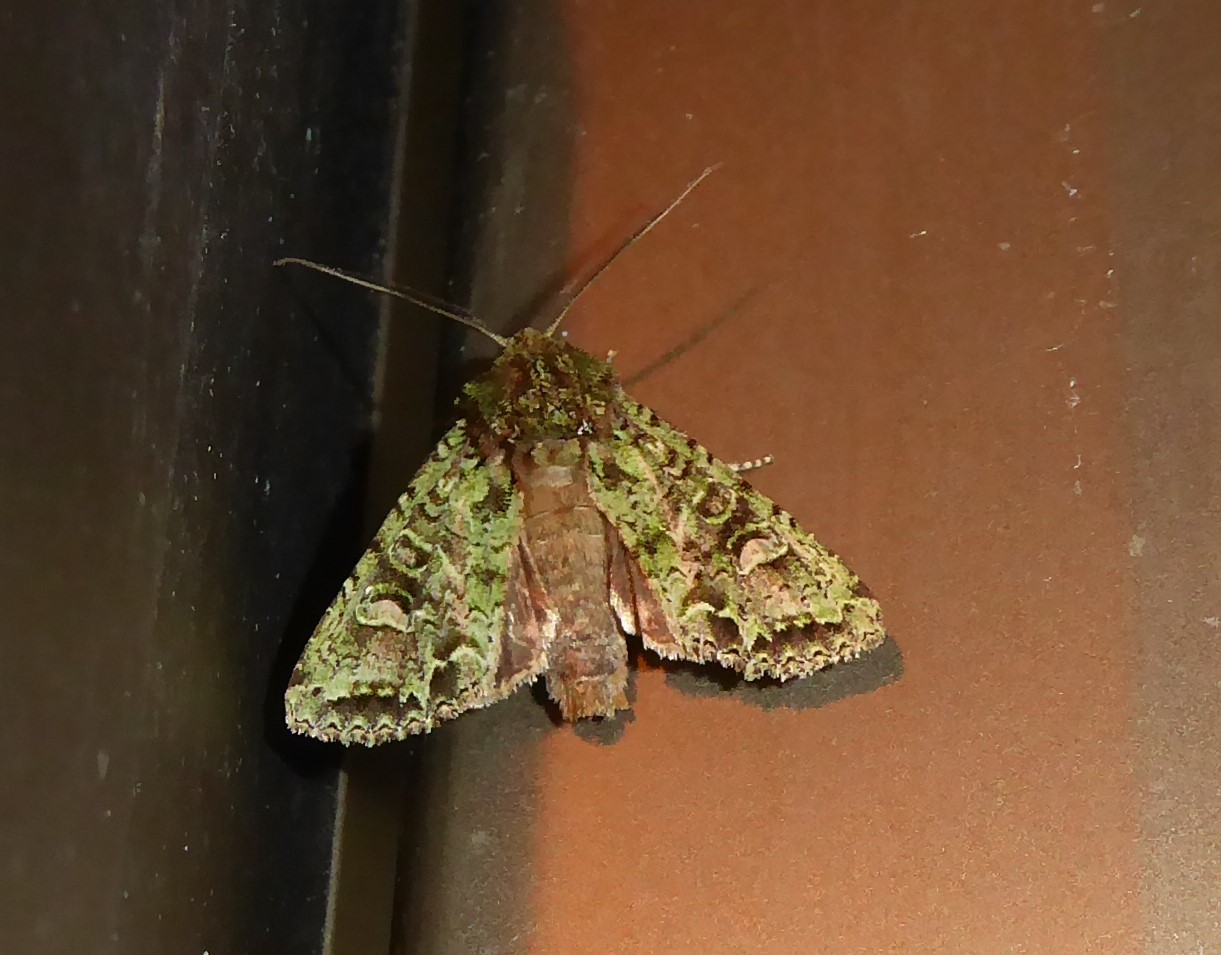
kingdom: Animalia
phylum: Arthropoda
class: Insecta
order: Lepidoptera
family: Noctuidae
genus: Ichneutica
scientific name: Ichneutica
